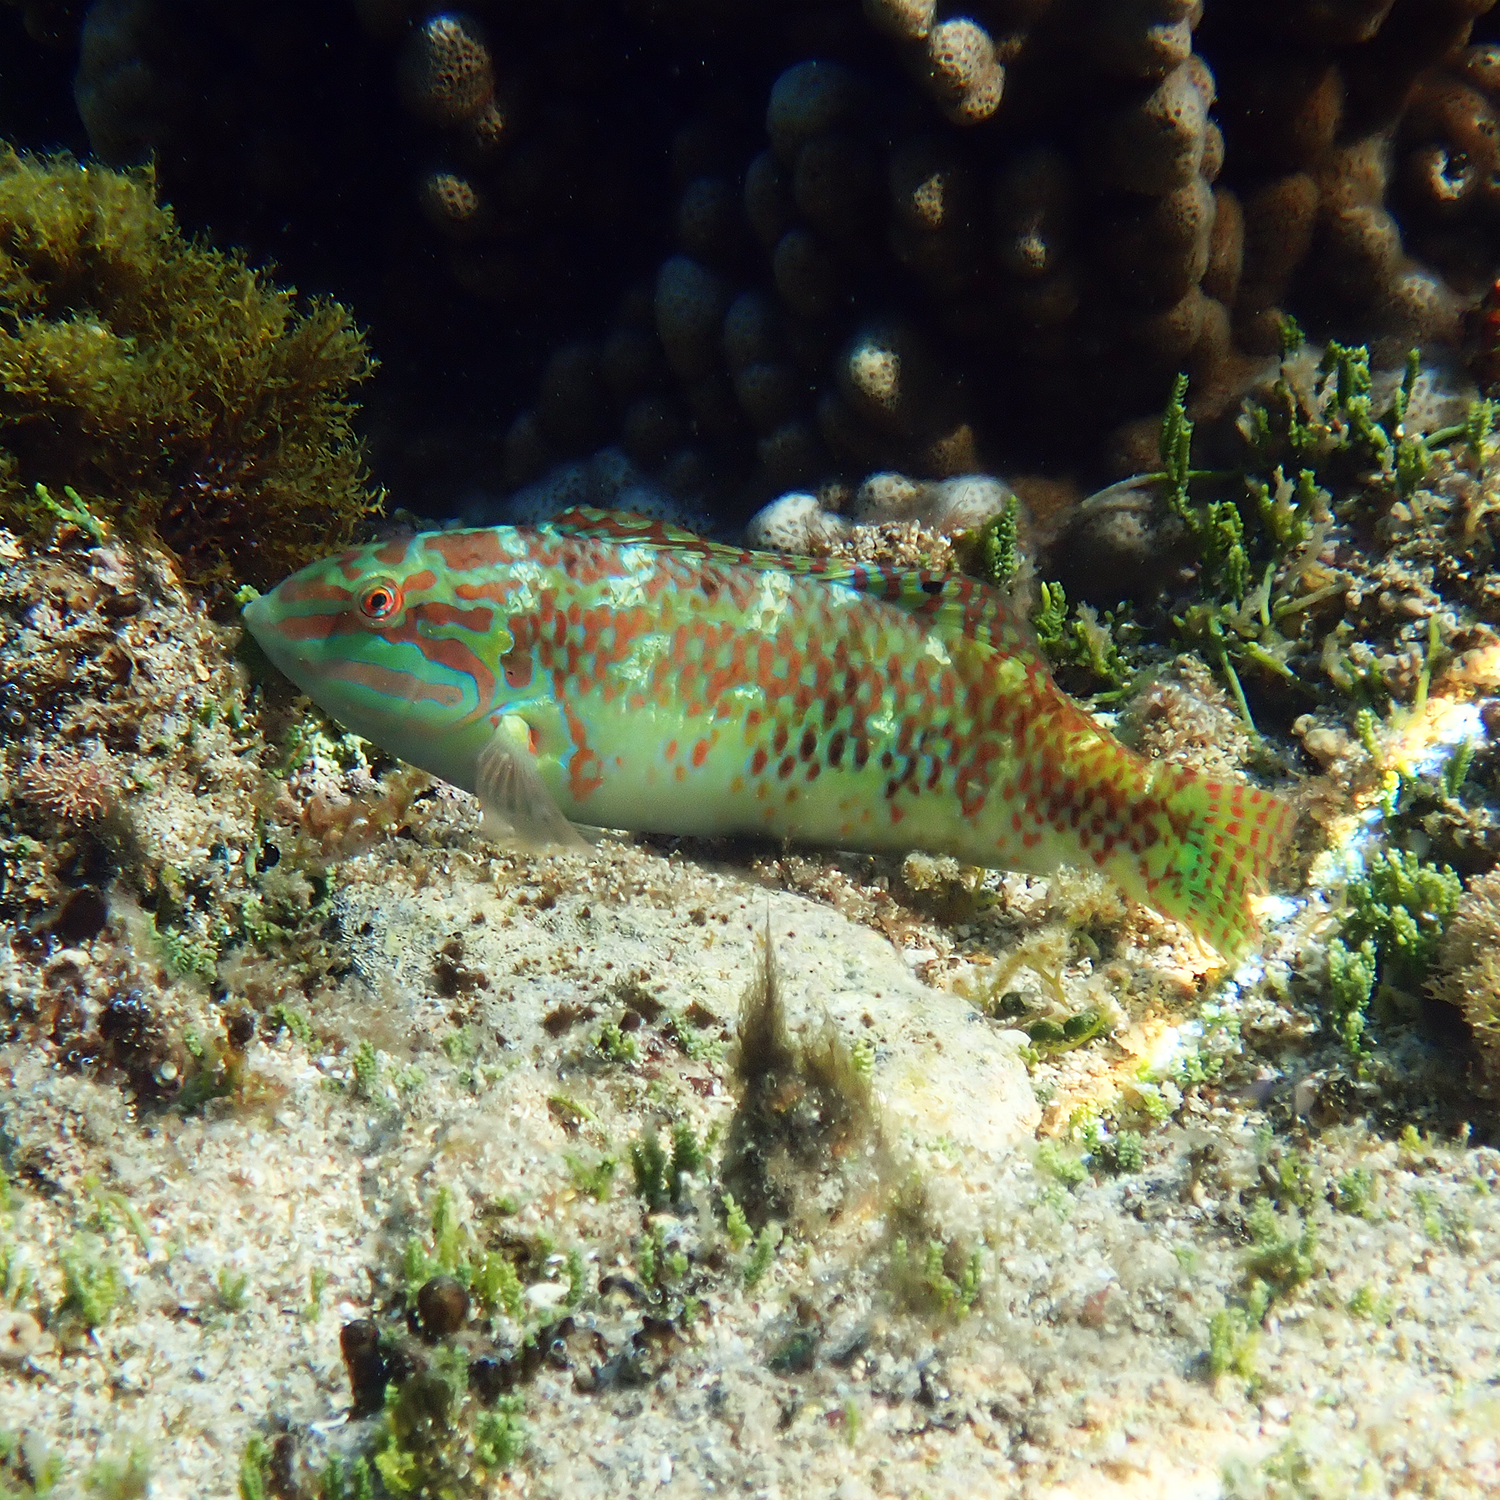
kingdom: Animalia
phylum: Chordata
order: Perciformes
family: Labridae
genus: Halichoeres
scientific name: Halichoeres margaritaceus
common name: Pink-belly wrasse
